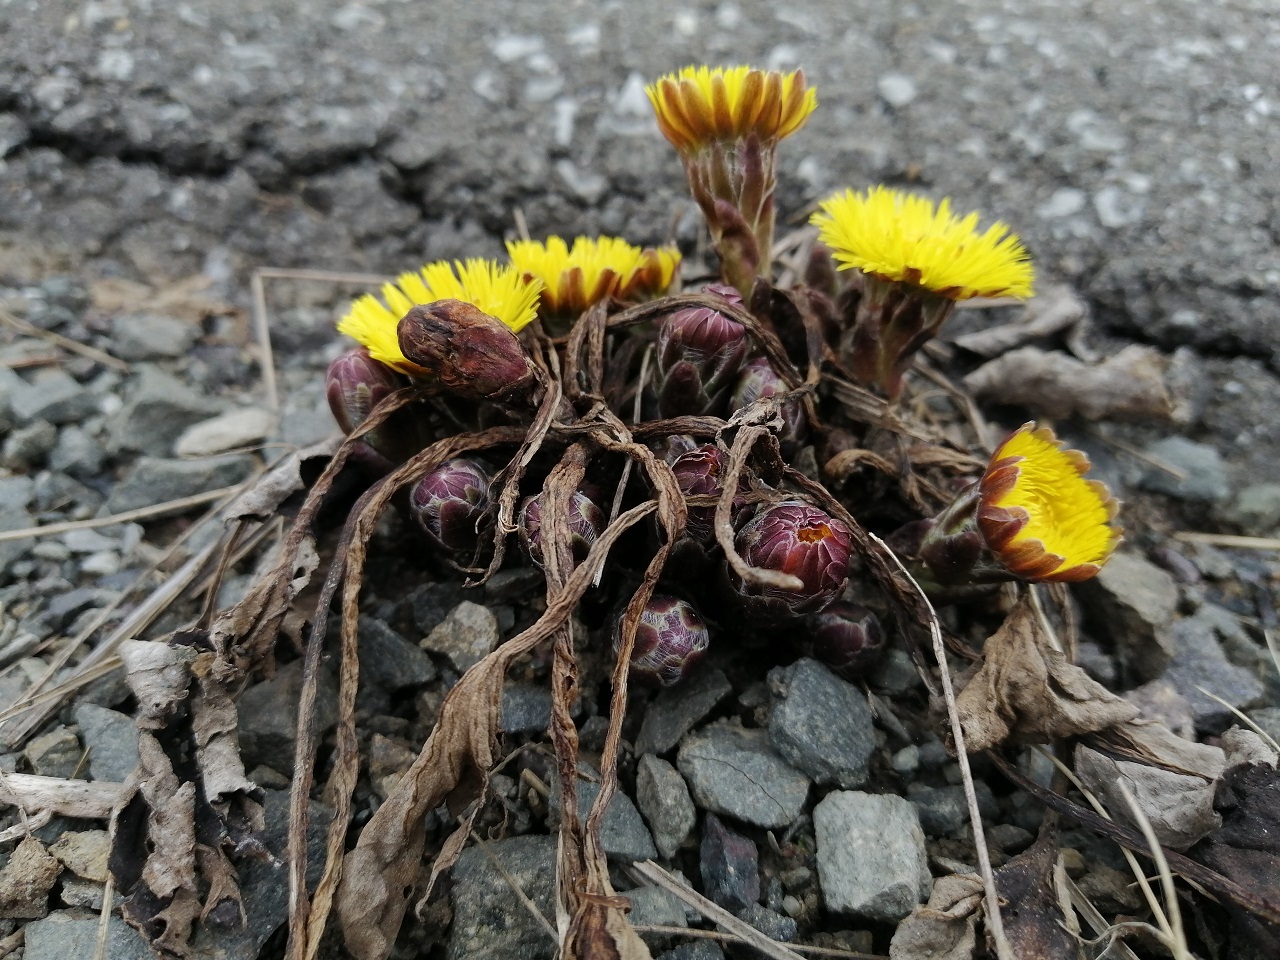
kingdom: Plantae
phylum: Tracheophyta
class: Magnoliopsida
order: Asterales
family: Asteraceae
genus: Tussilago
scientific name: Tussilago farfara
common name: Coltsfoot
